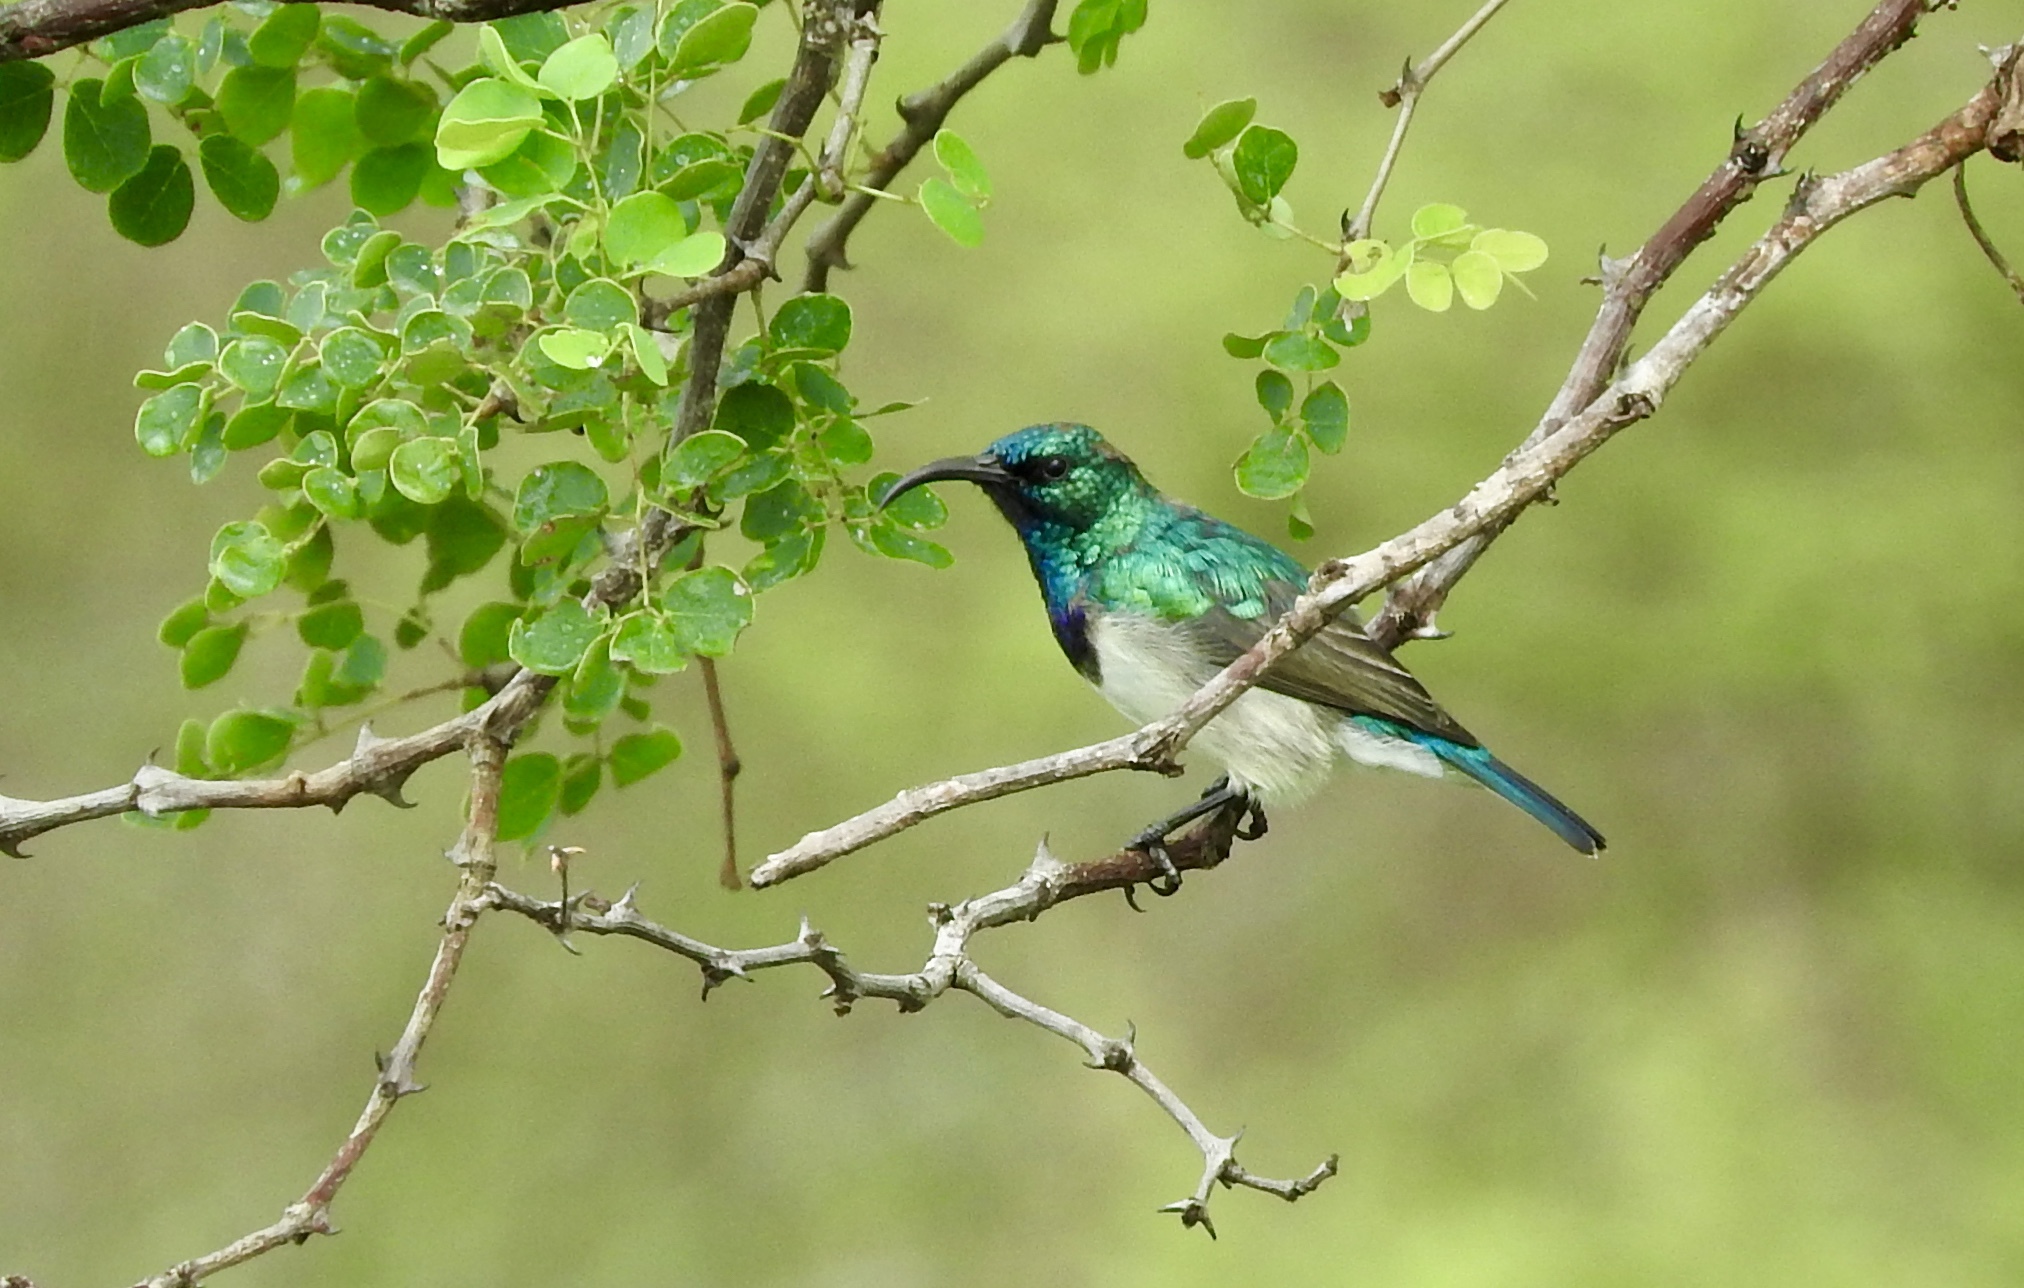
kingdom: Animalia
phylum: Chordata
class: Aves
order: Passeriformes
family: Nectariniidae
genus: Cinnyris
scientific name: Cinnyris talatala
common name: White-bellied sunbird
